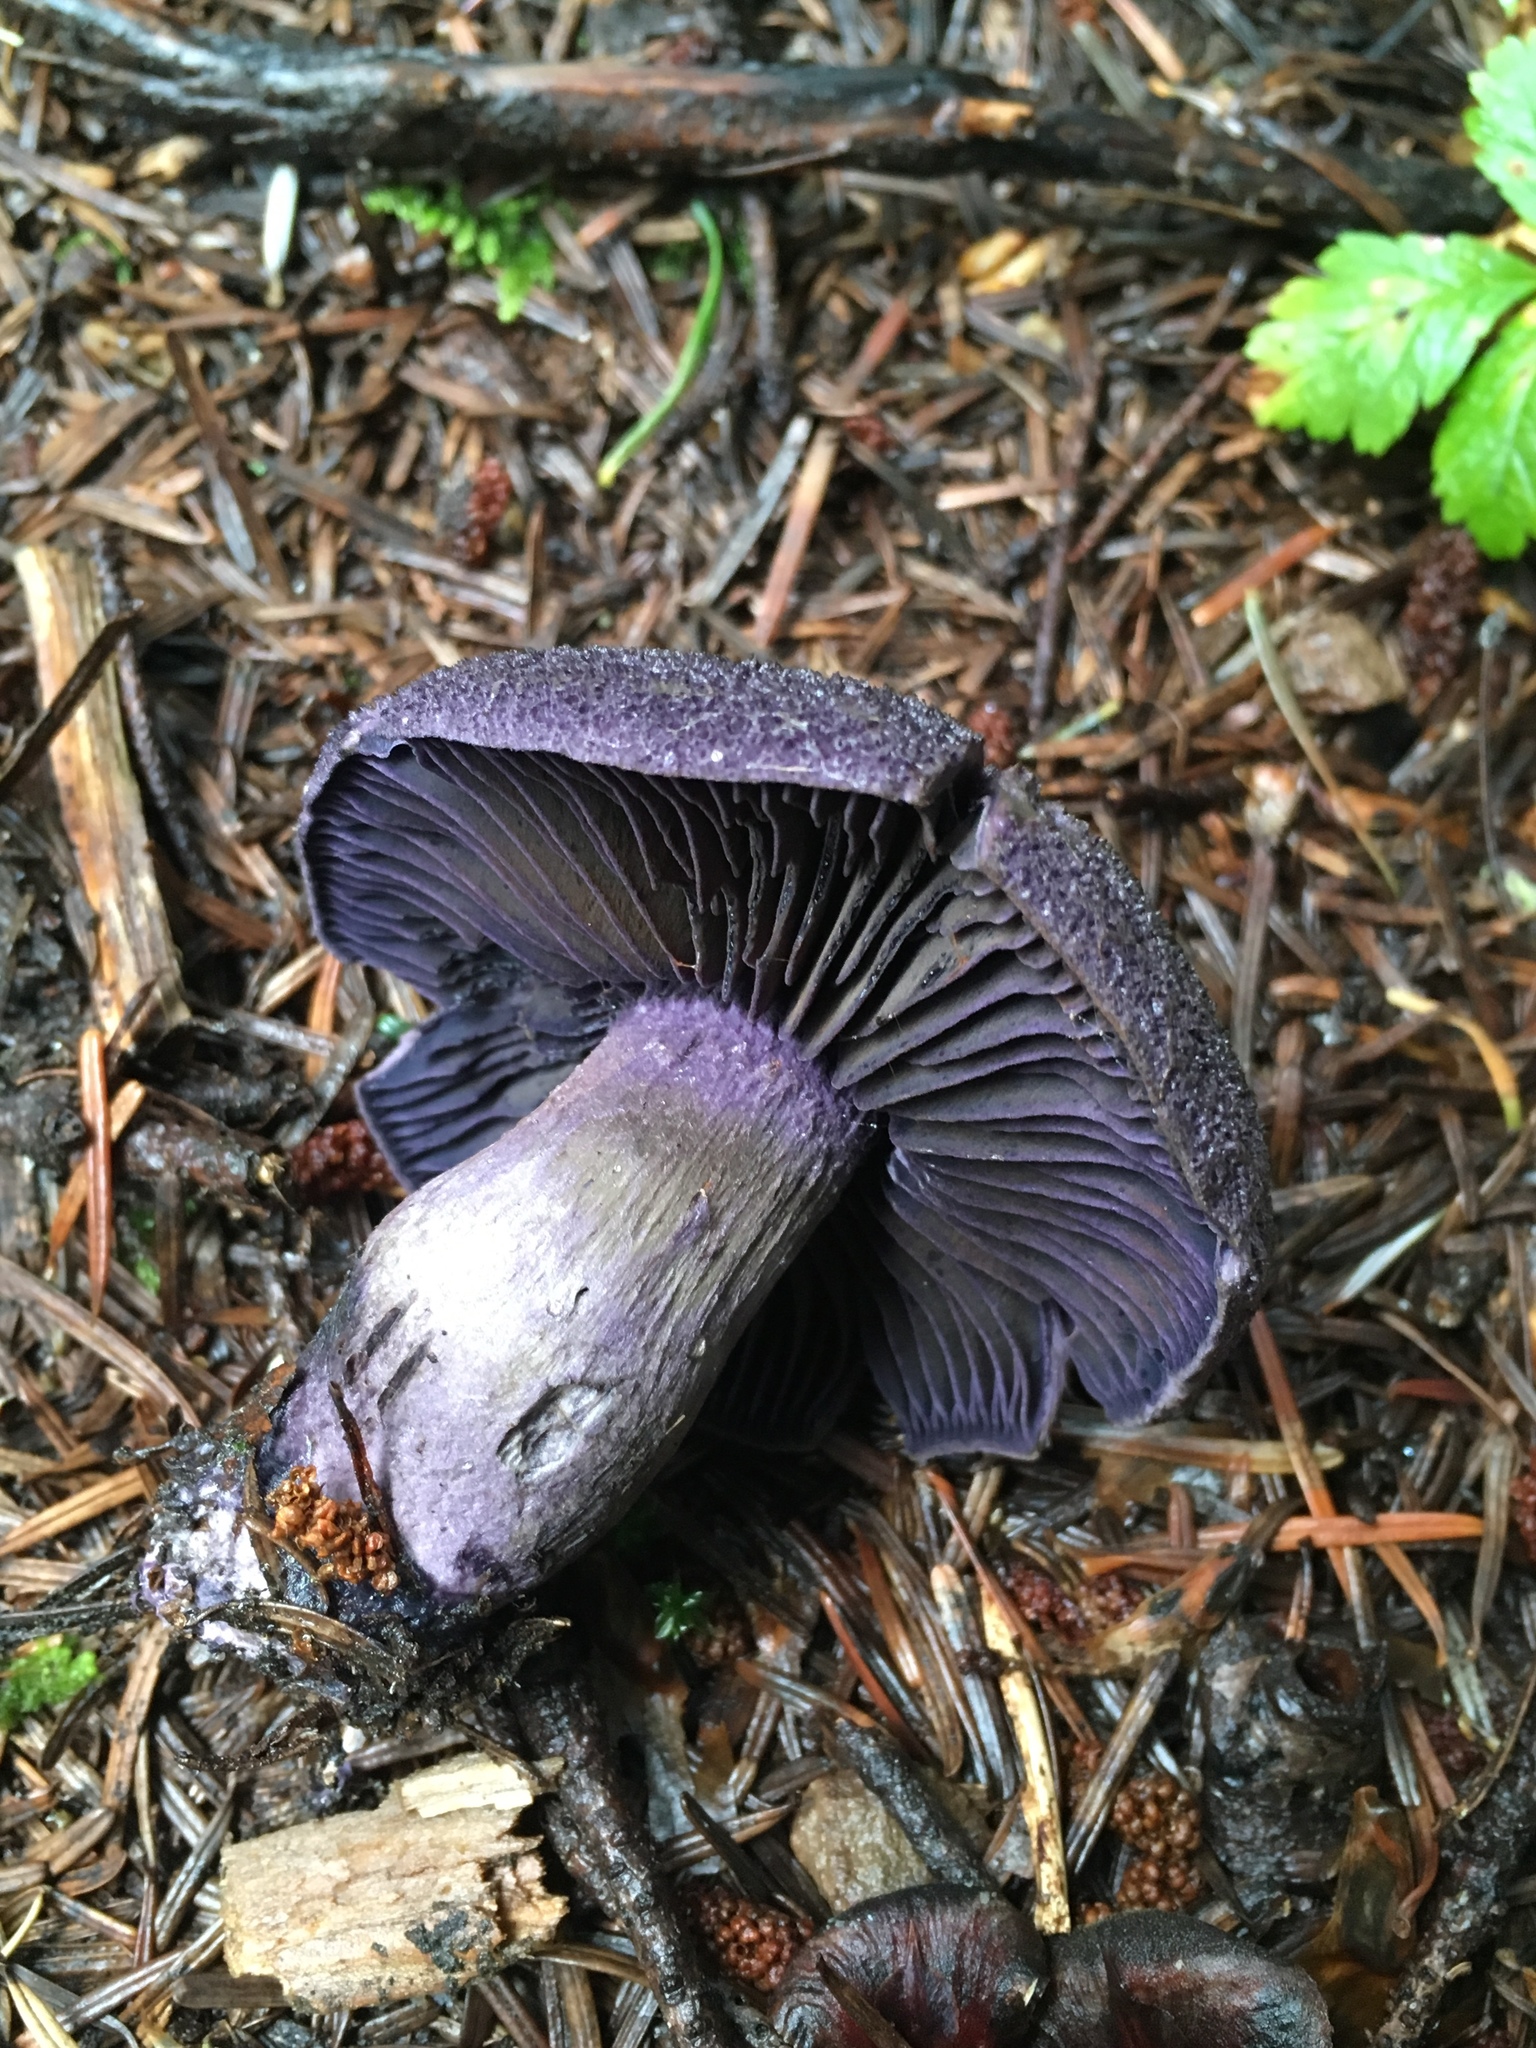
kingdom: Fungi
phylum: Basidiomycota
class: Agaricomycetes
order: Agaricales
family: Cortinariaceae
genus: Cortinarius
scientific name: Cortinarius violaceus
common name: Violet webcap
